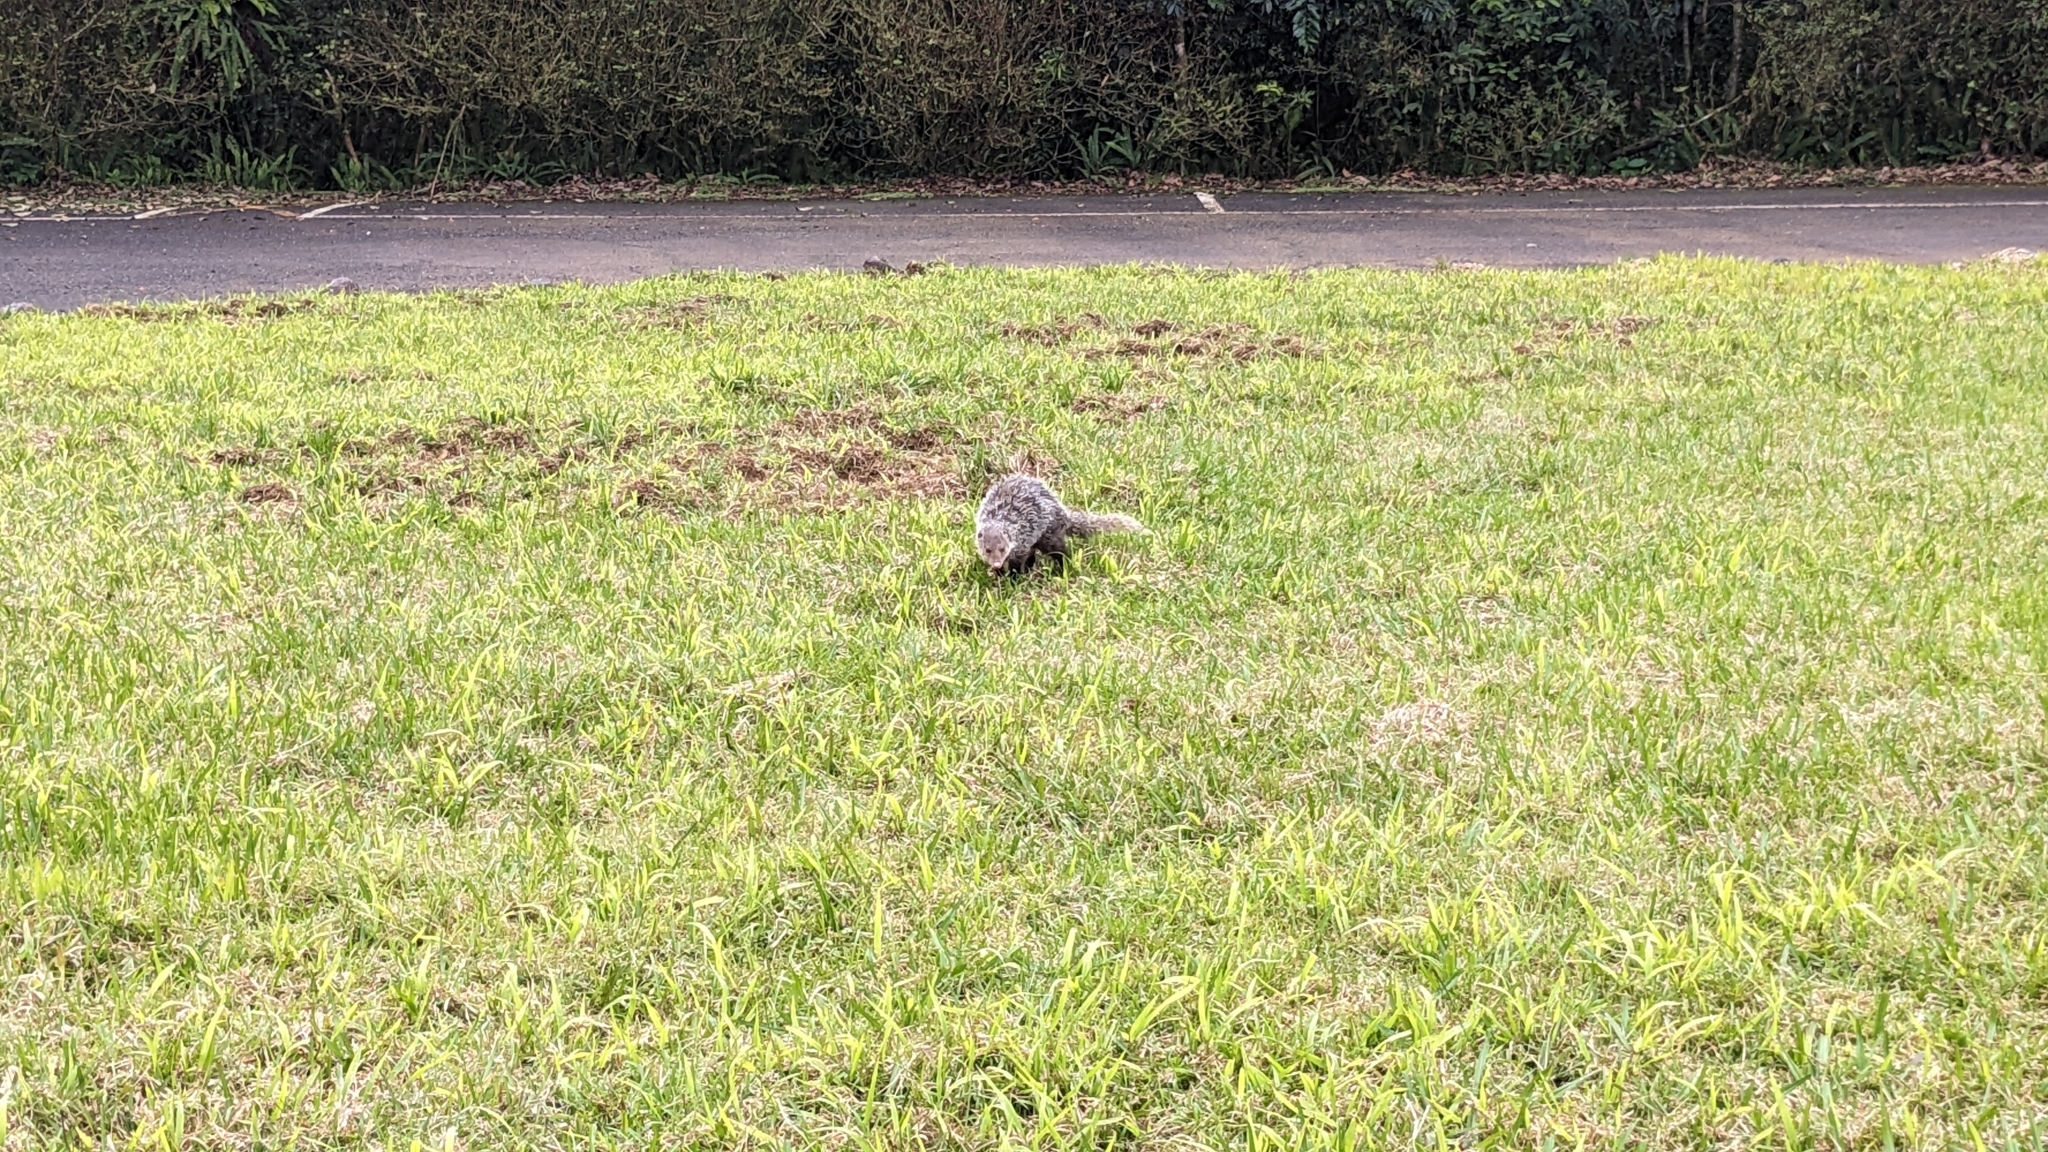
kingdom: Animalia
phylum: Chordata
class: Mammalia
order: Carnivora
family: Herpestidae
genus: Herpestes
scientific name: Herpestes urva
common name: Crab-eating mongoose
